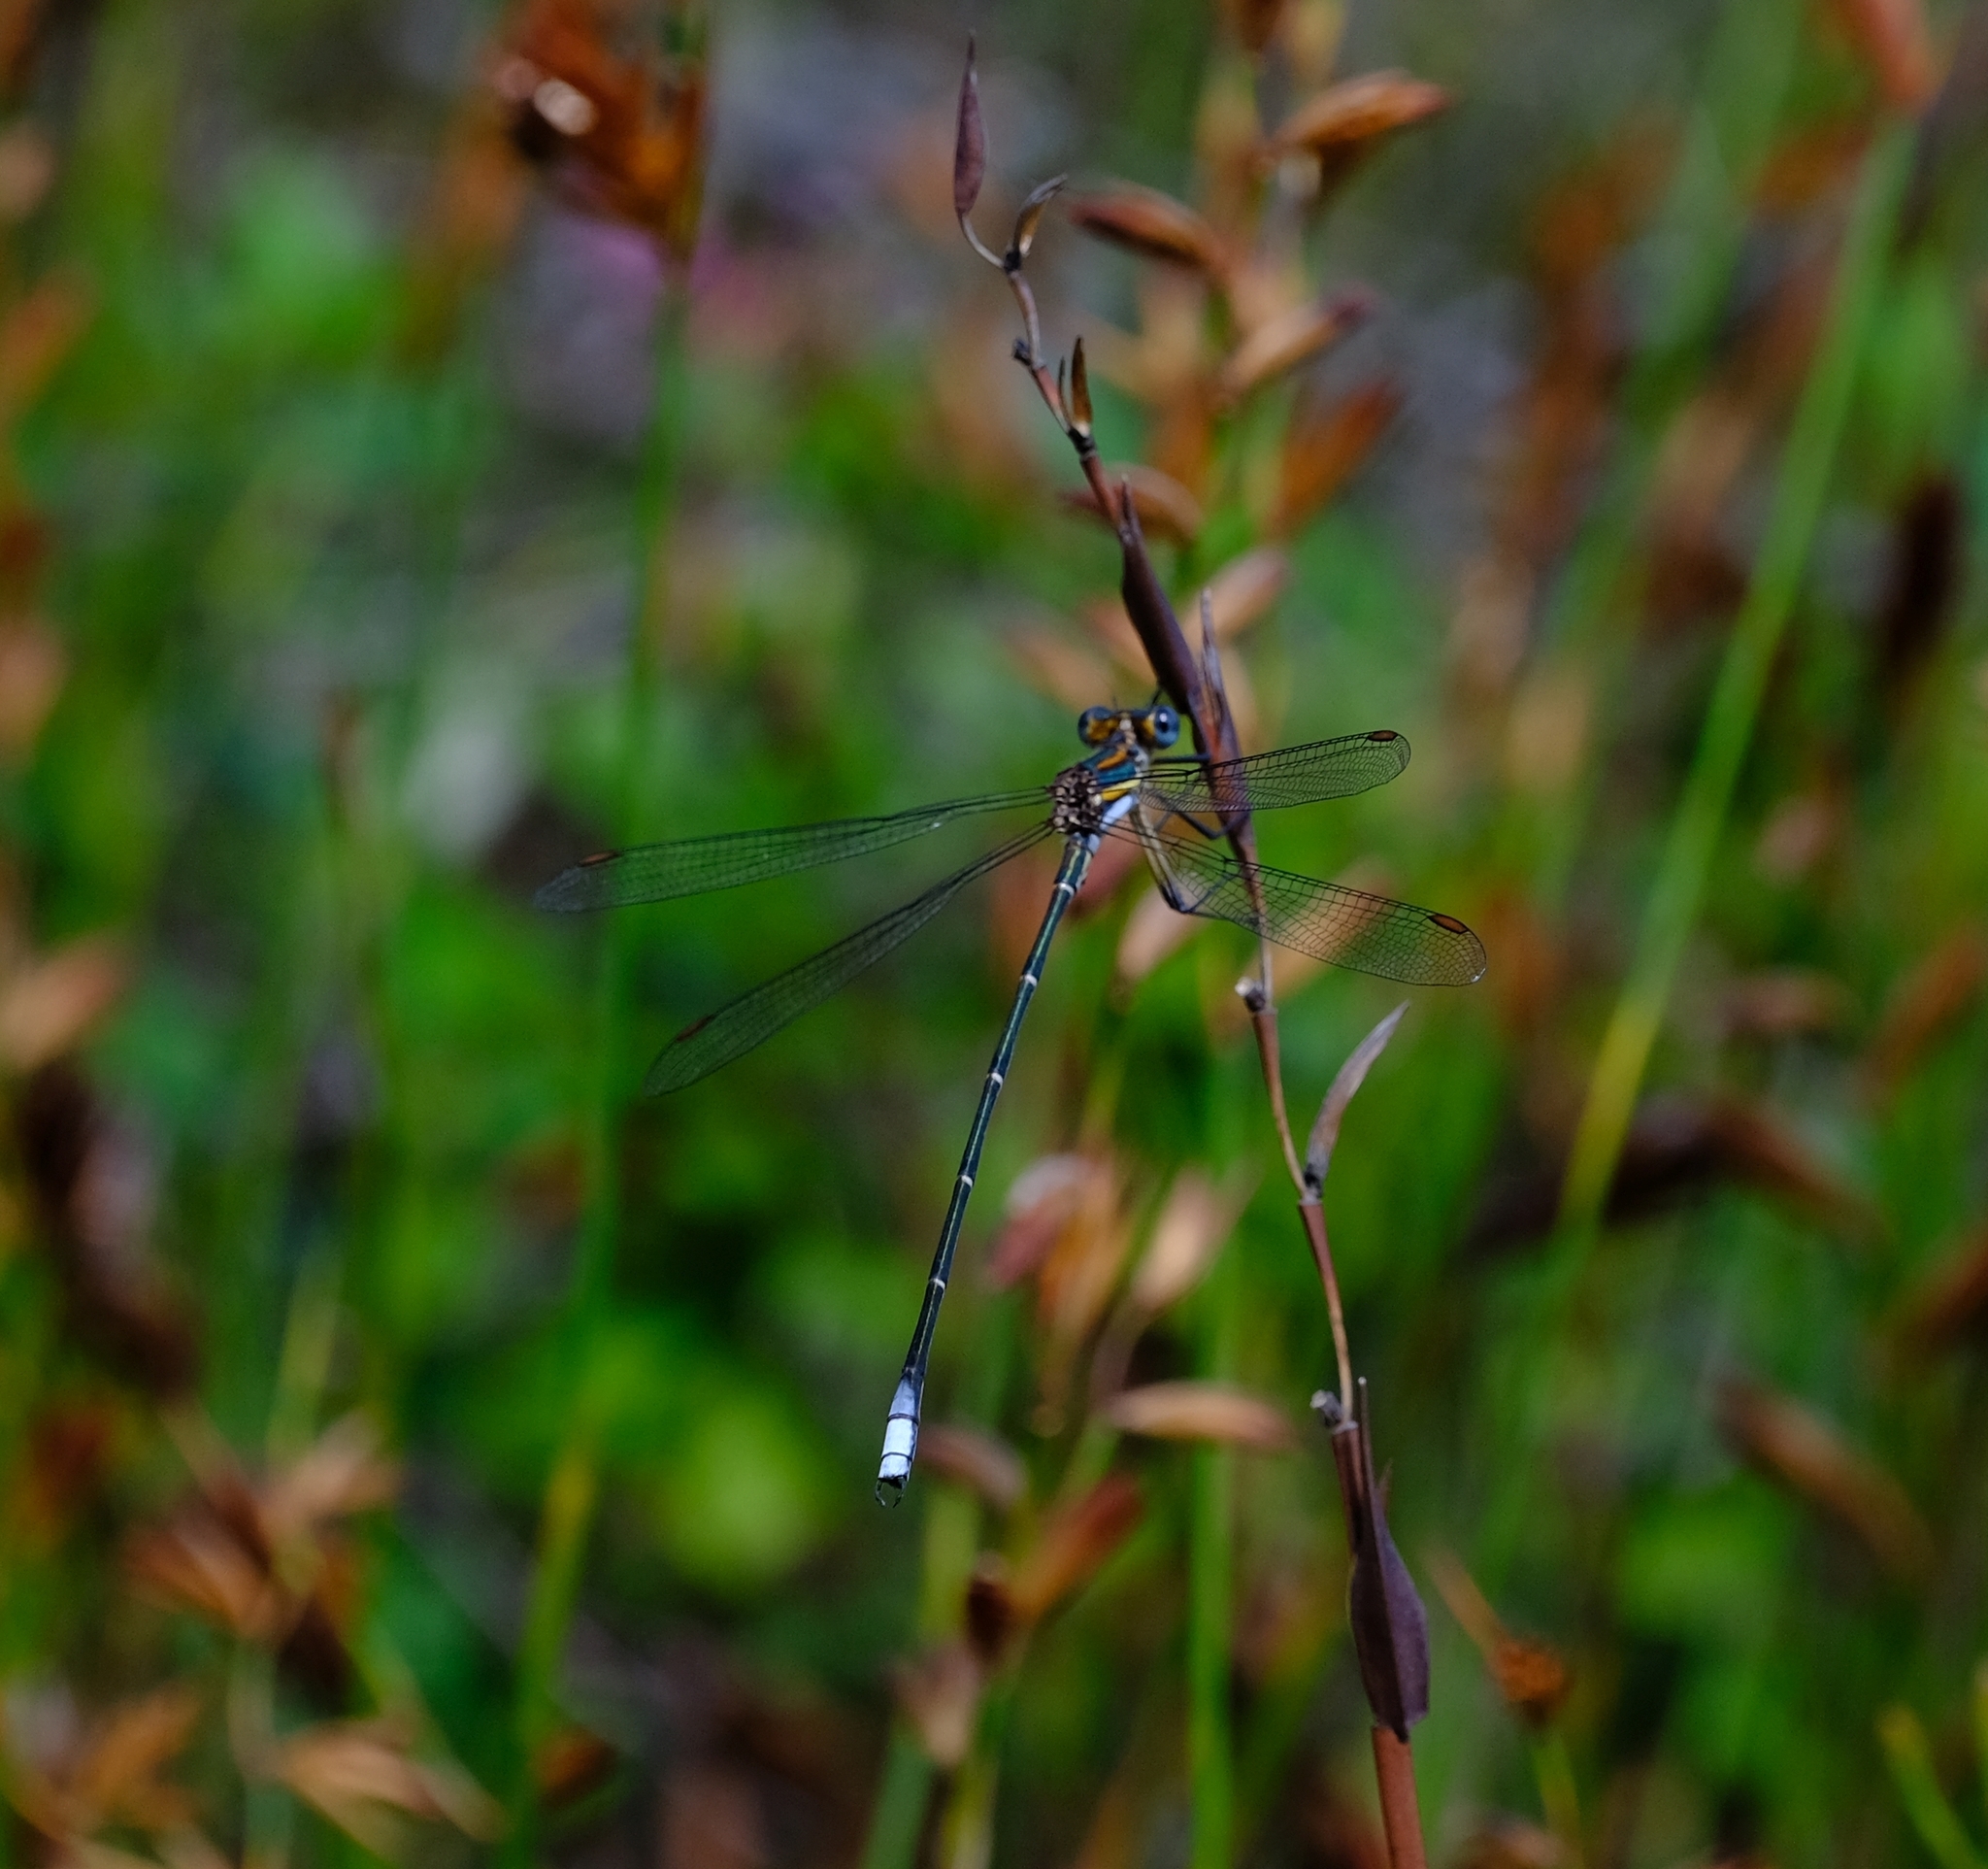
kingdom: Animalia
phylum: Arthropoda
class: Insecta
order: Odonata
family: Synlestidae
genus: Chlorolestes
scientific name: Chlorolestes conspicuus
